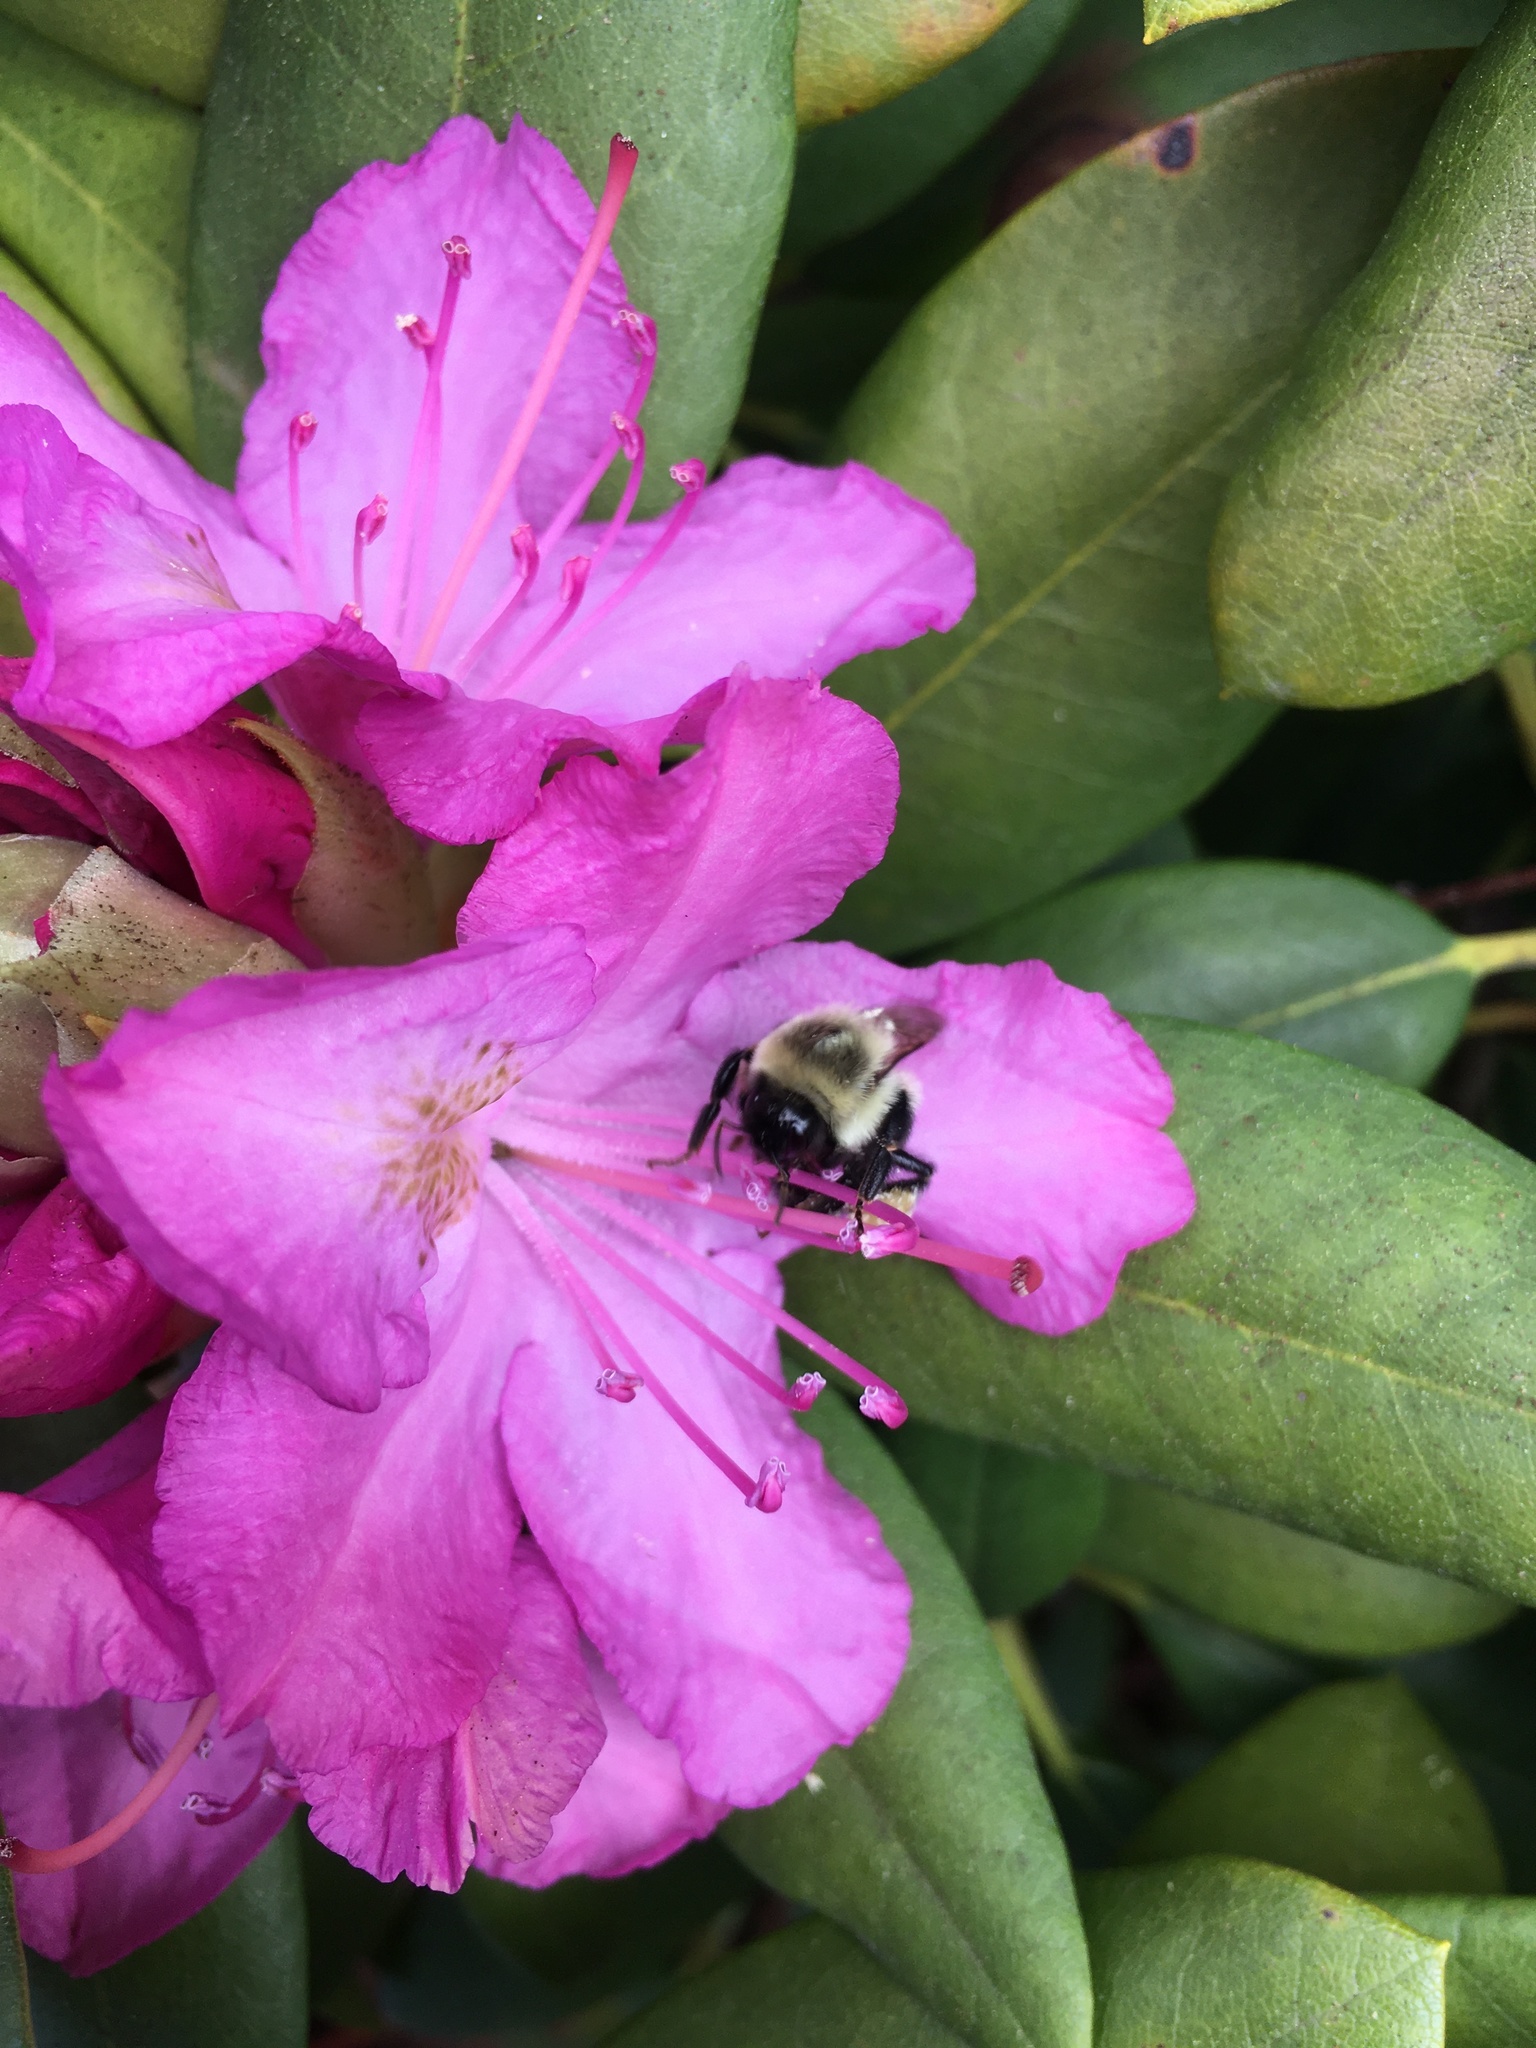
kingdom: Animalia
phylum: Arthropoda
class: Insecta
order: Hymenoptera
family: Apidae
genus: Bombus
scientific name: Bombus impatiens
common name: Common eastern bumble bee
